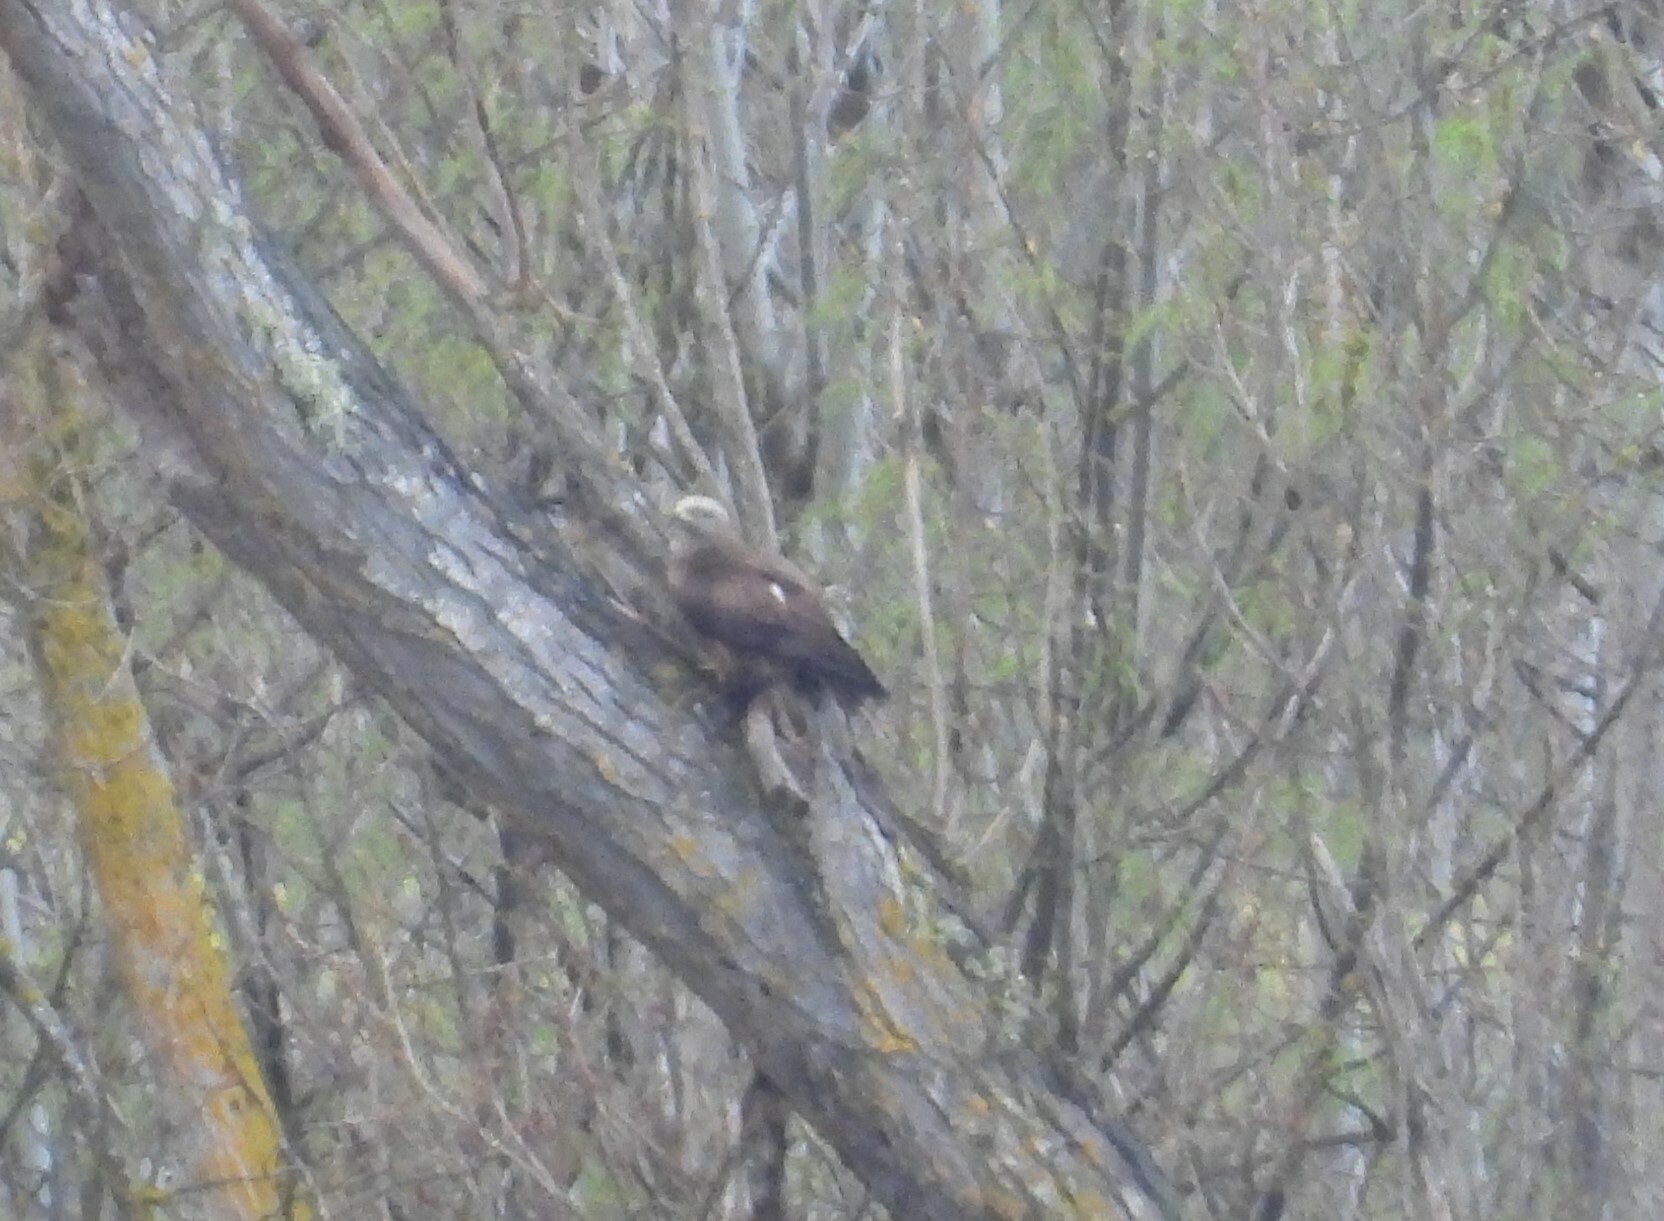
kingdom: Animalia
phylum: Chordata
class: Aves
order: Accipitriformes
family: Accipitridae
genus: Milvus
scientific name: Milvus migrans
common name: Black kite
